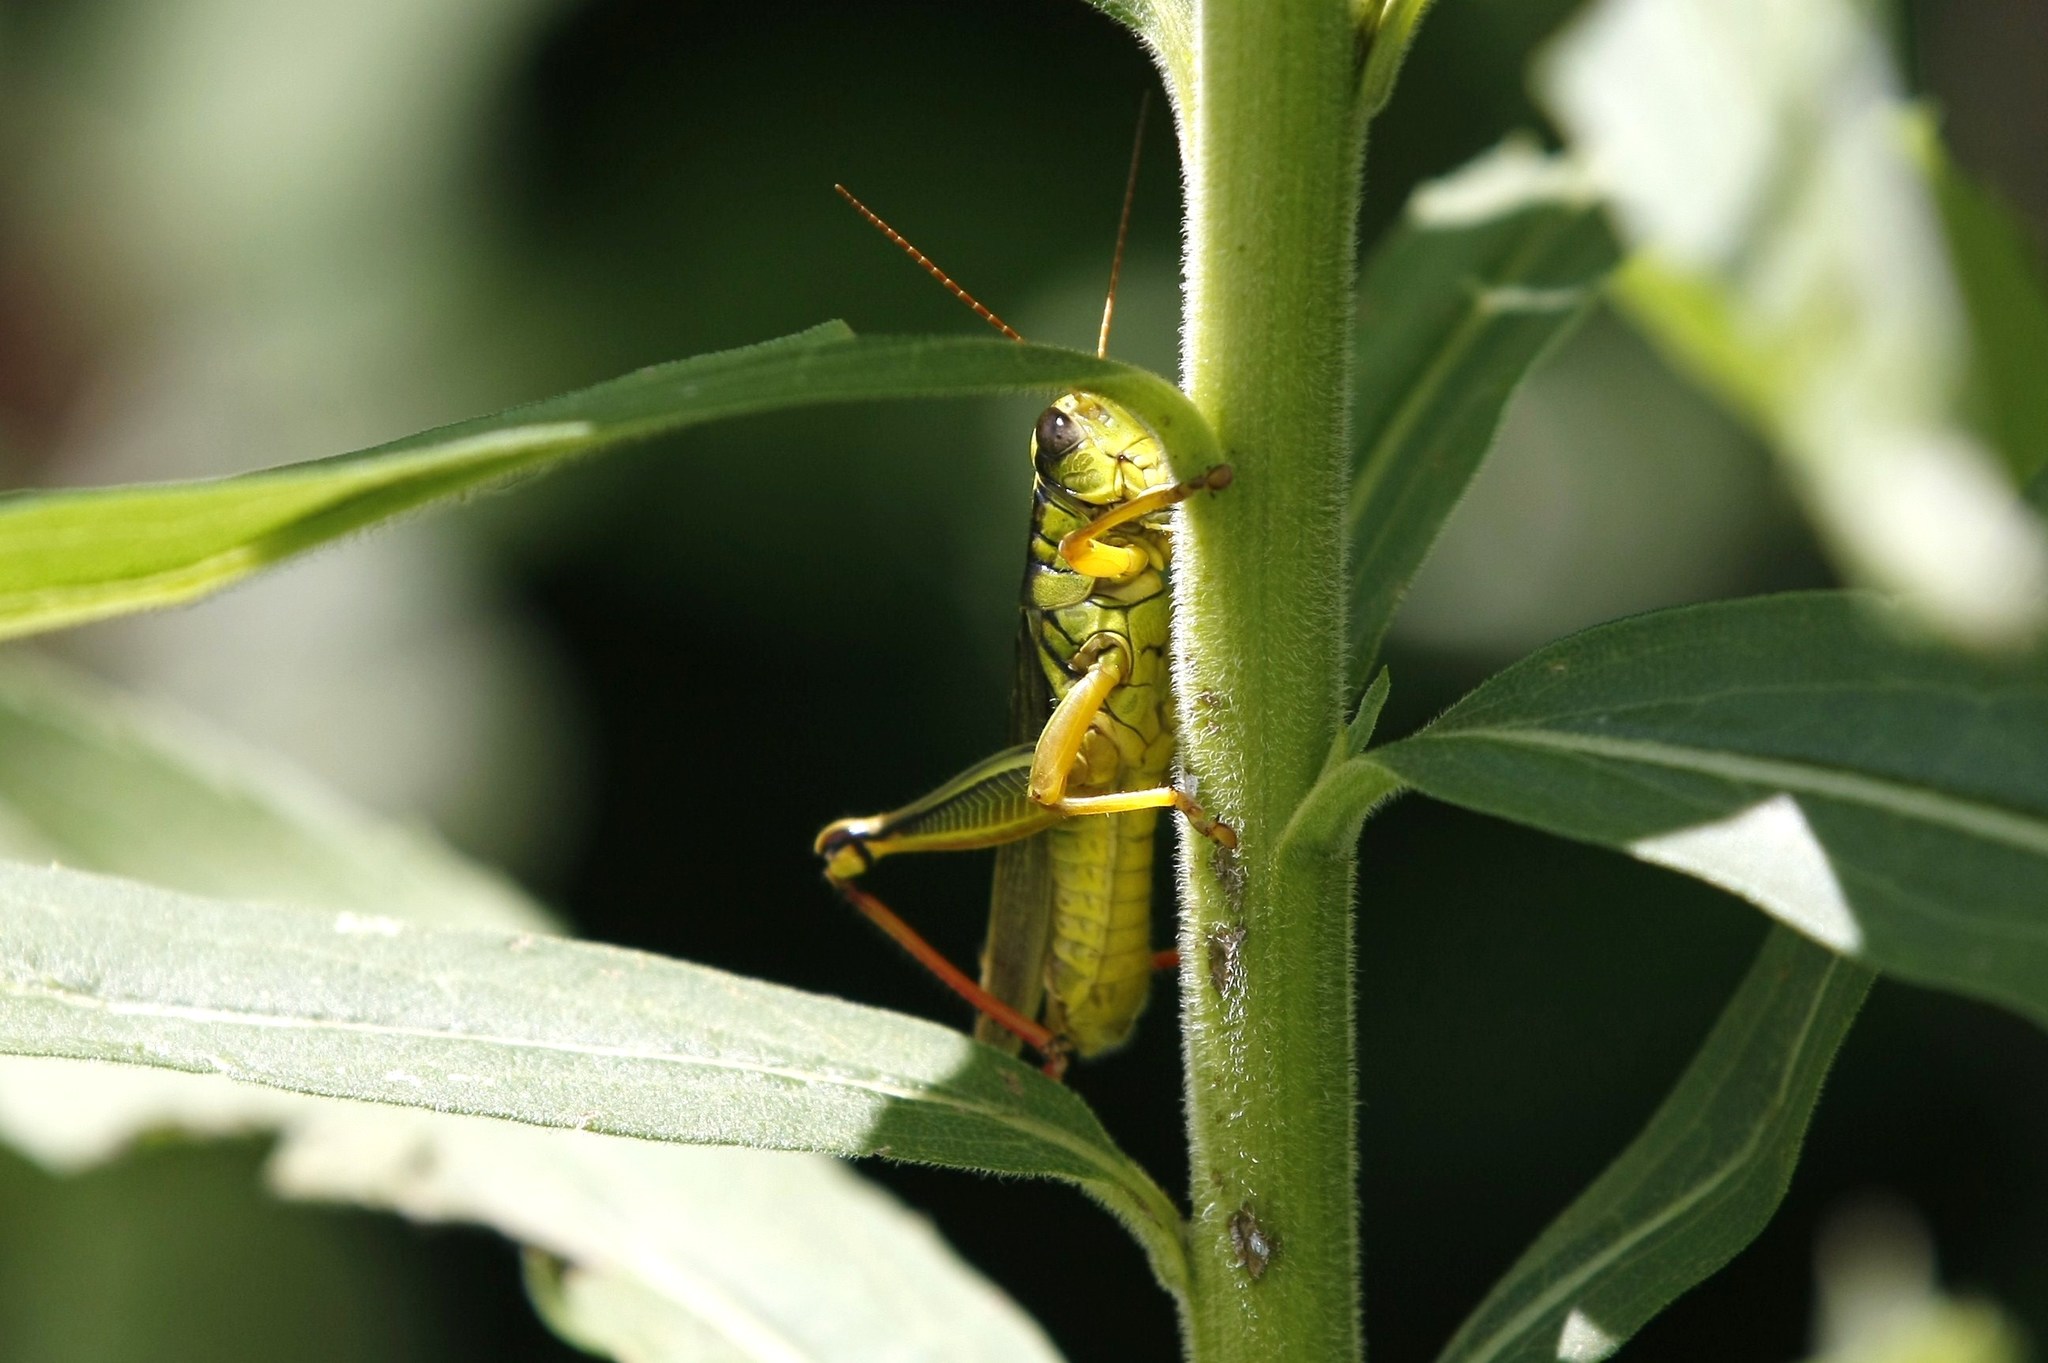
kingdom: Animalia
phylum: Arthropoda
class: Insecta
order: Orthoptera
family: Acrididae
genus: Melanoplus
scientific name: Melanoplus bivittatus
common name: Two-striped grasshopper
